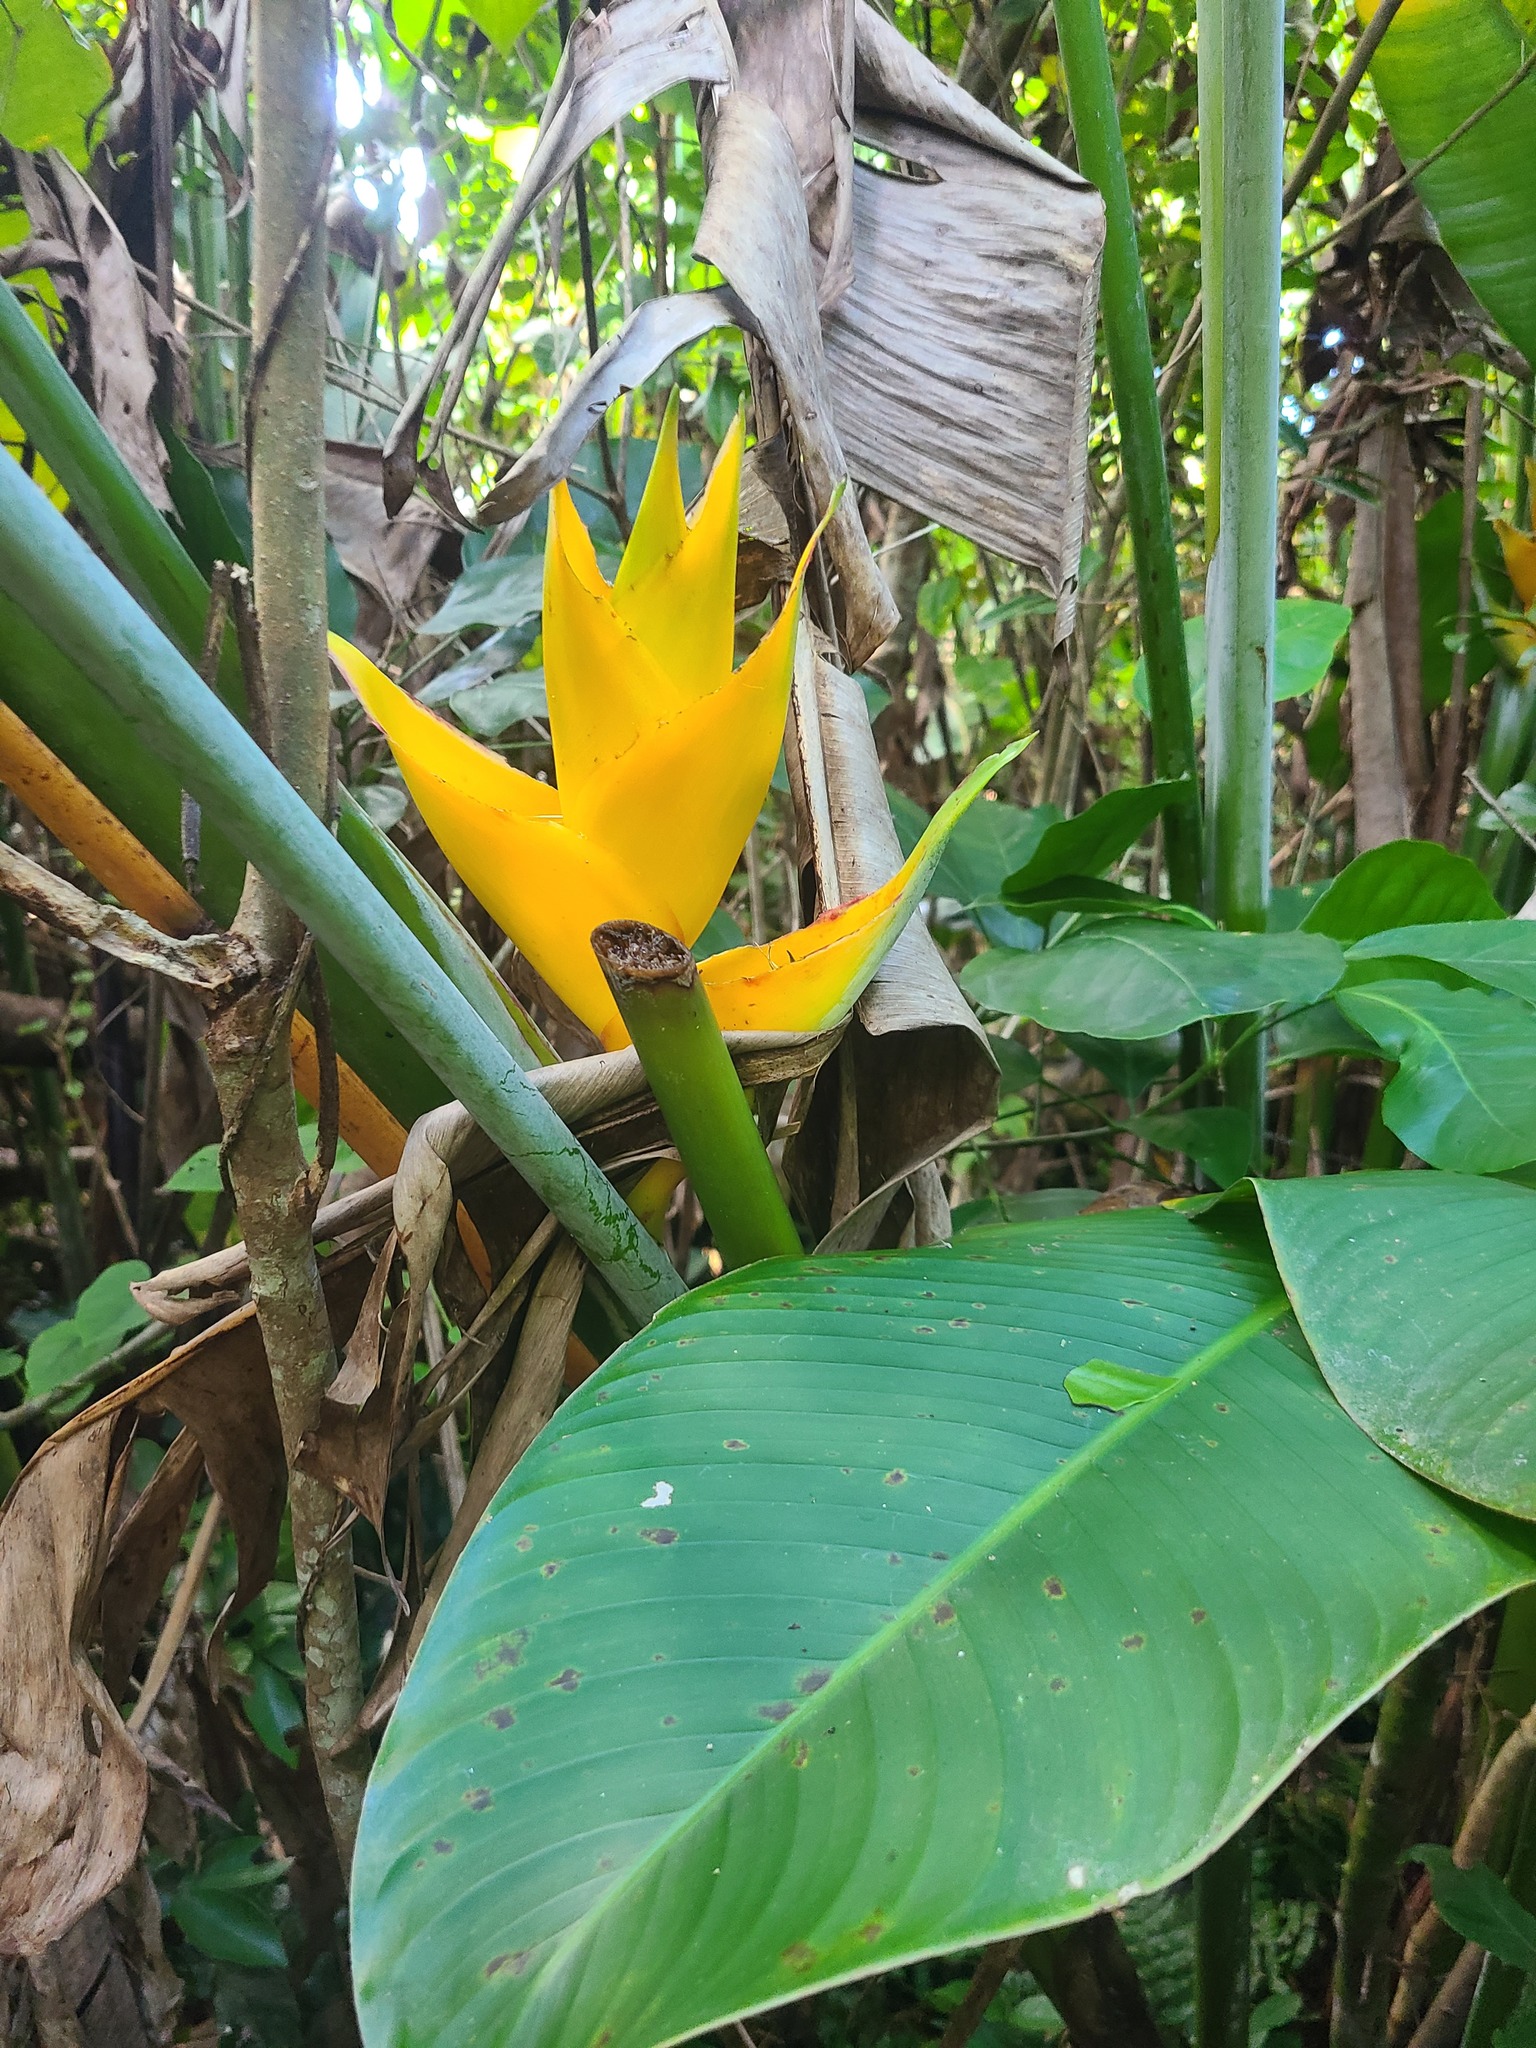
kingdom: Plantae
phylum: Tracheophyta
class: Liliopsida
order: Zingiberales
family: Heliconiaceae
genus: Heliconia
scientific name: Heliconia caribaea
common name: Wild plantain
